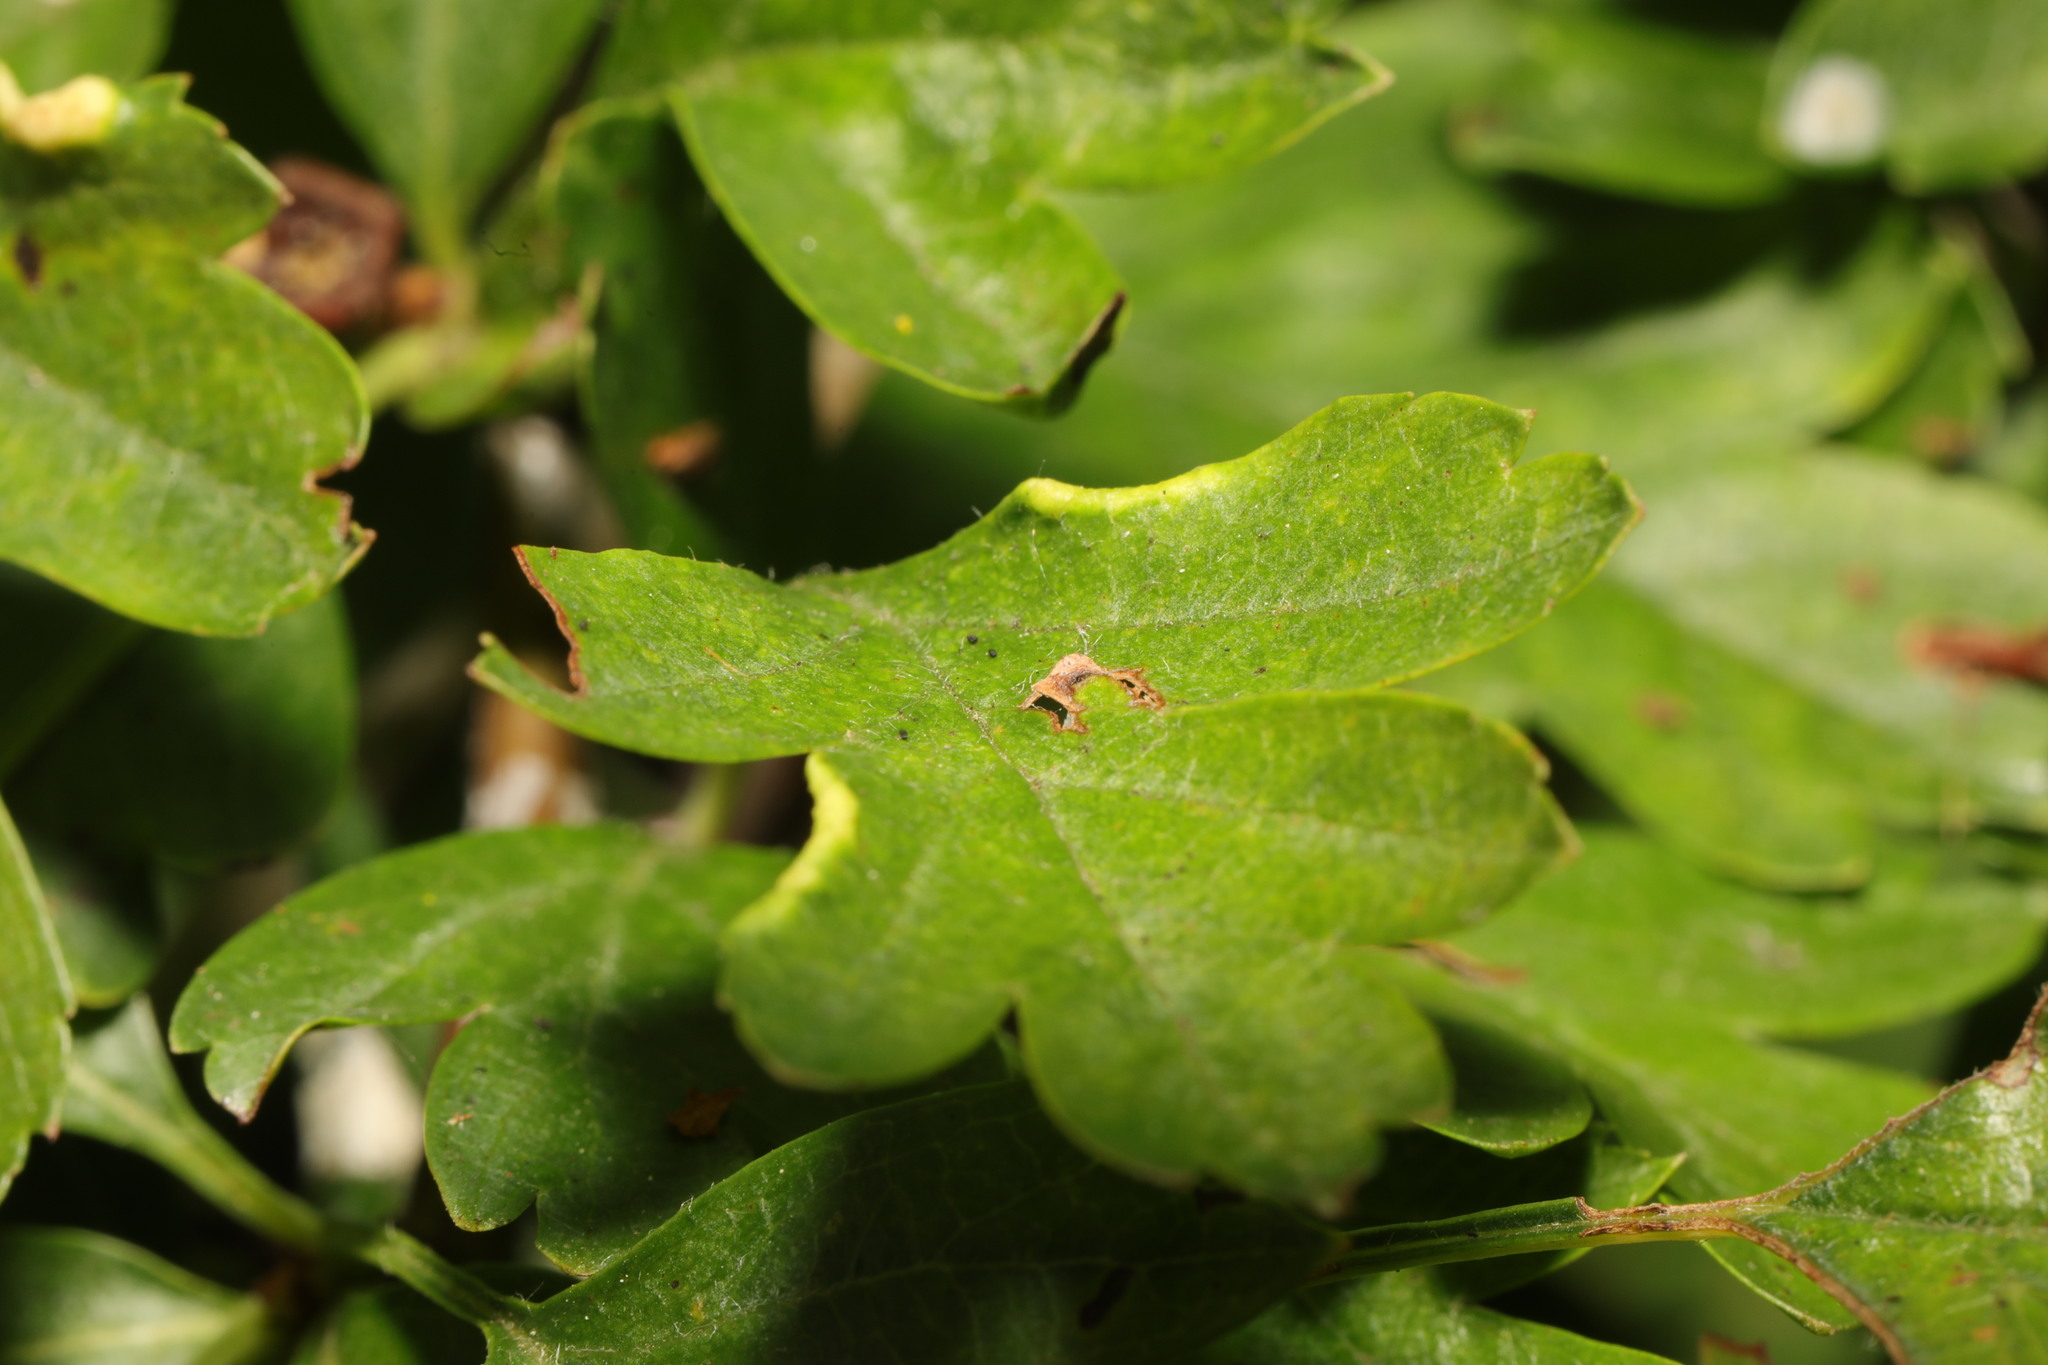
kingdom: Plantae
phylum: Tracheophyta
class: Magnoliopsida
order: Rosales
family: Rosaceae
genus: Crataegus
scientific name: Crataegus monogyna
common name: Hawthorn
